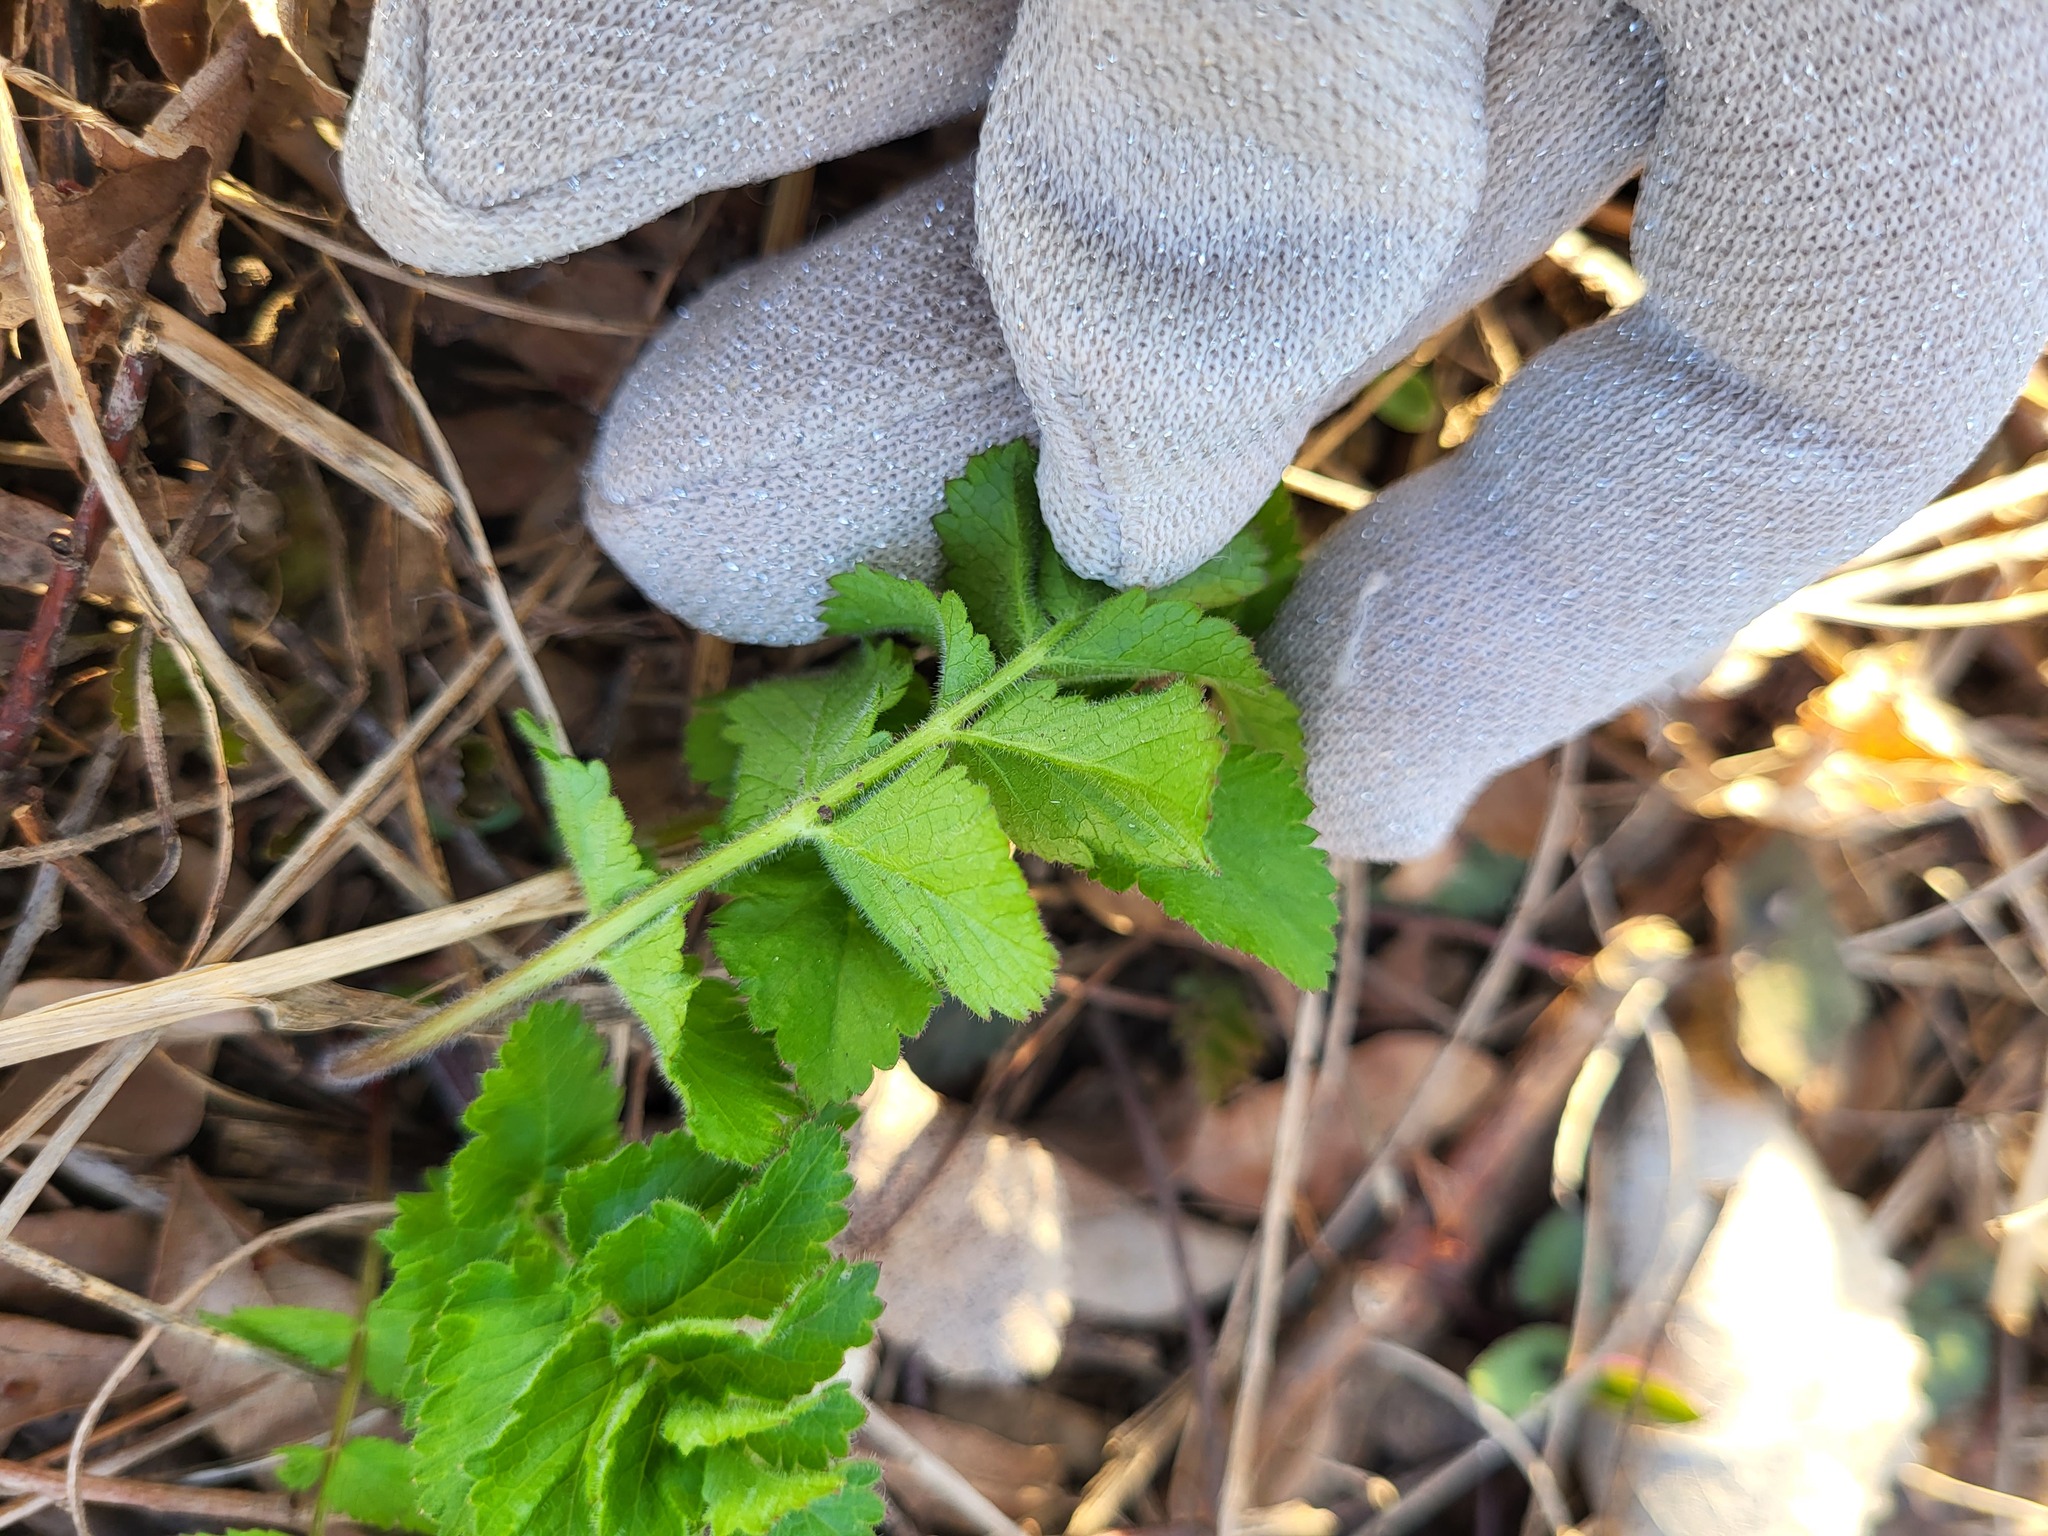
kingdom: Plantae
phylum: Tracheophyta
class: Magnoliopsida
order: Apiales
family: Apiaceae
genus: Pastinaca
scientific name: Pastinaca sativa
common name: Wild parsnip
